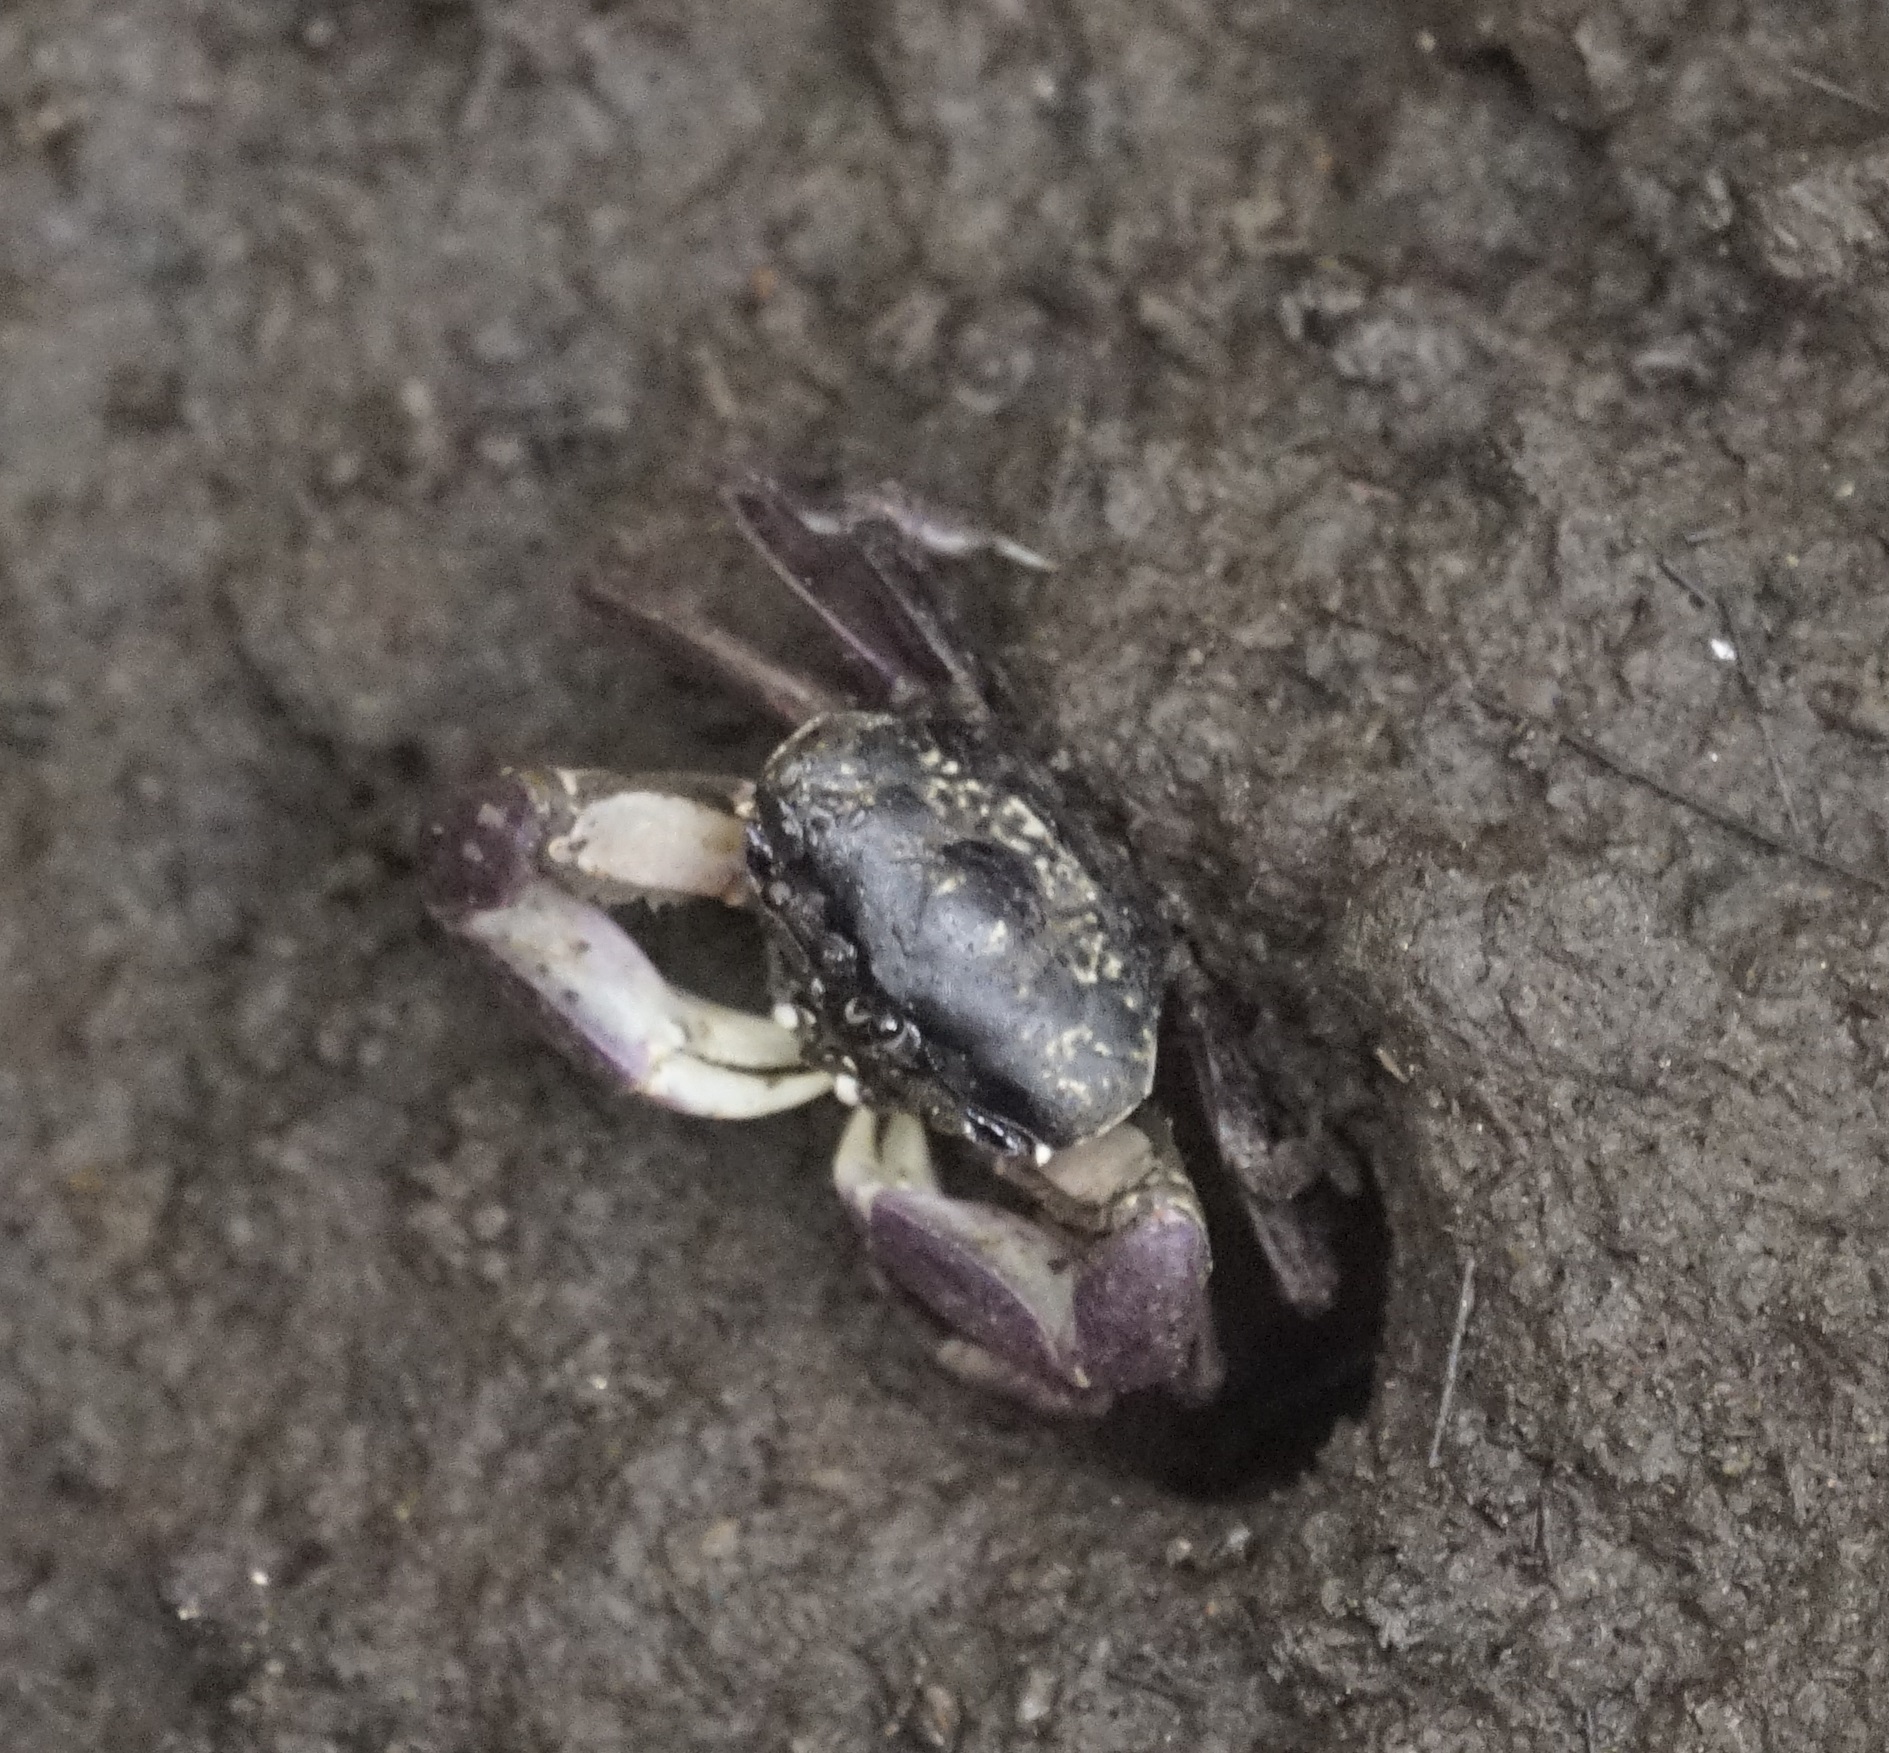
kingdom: Animalia
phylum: Arthropoda
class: Malacostraca
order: Decapoda
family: Heloeciidae
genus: Heloecius
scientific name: Heloecius cordiformis
